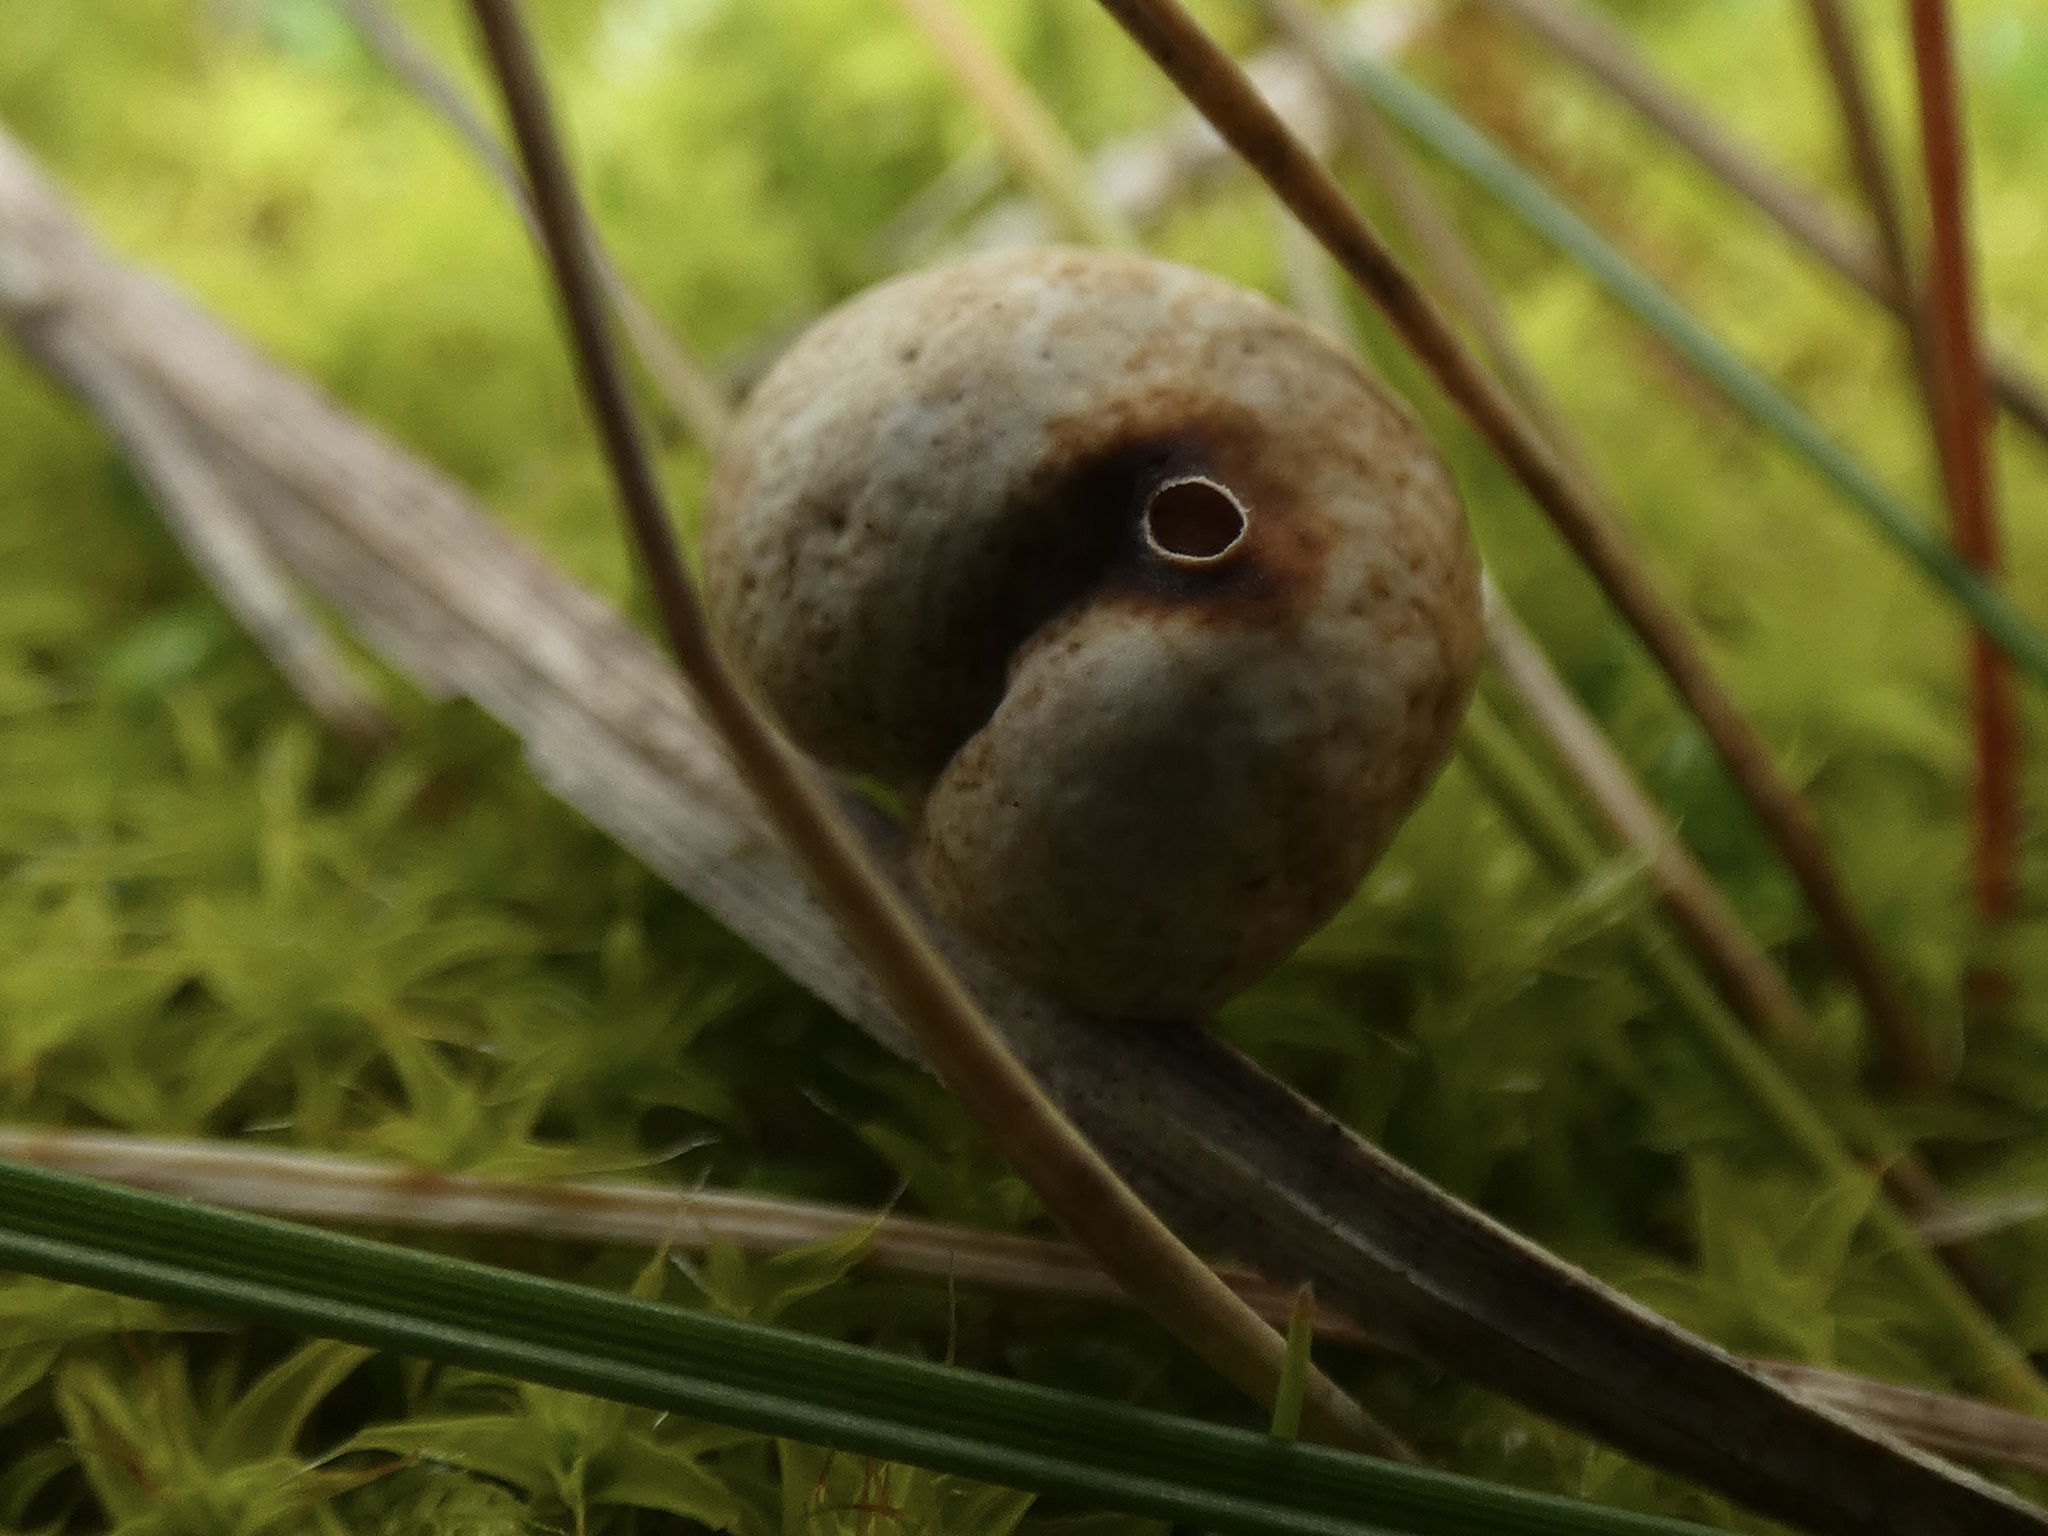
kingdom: Fungi
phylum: Basidiomycota
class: Agaricomycetes
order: Agaricales
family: Agaricaceae
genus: Tulostoma
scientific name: Tulostoma brumale
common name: Winter stalk puffball
